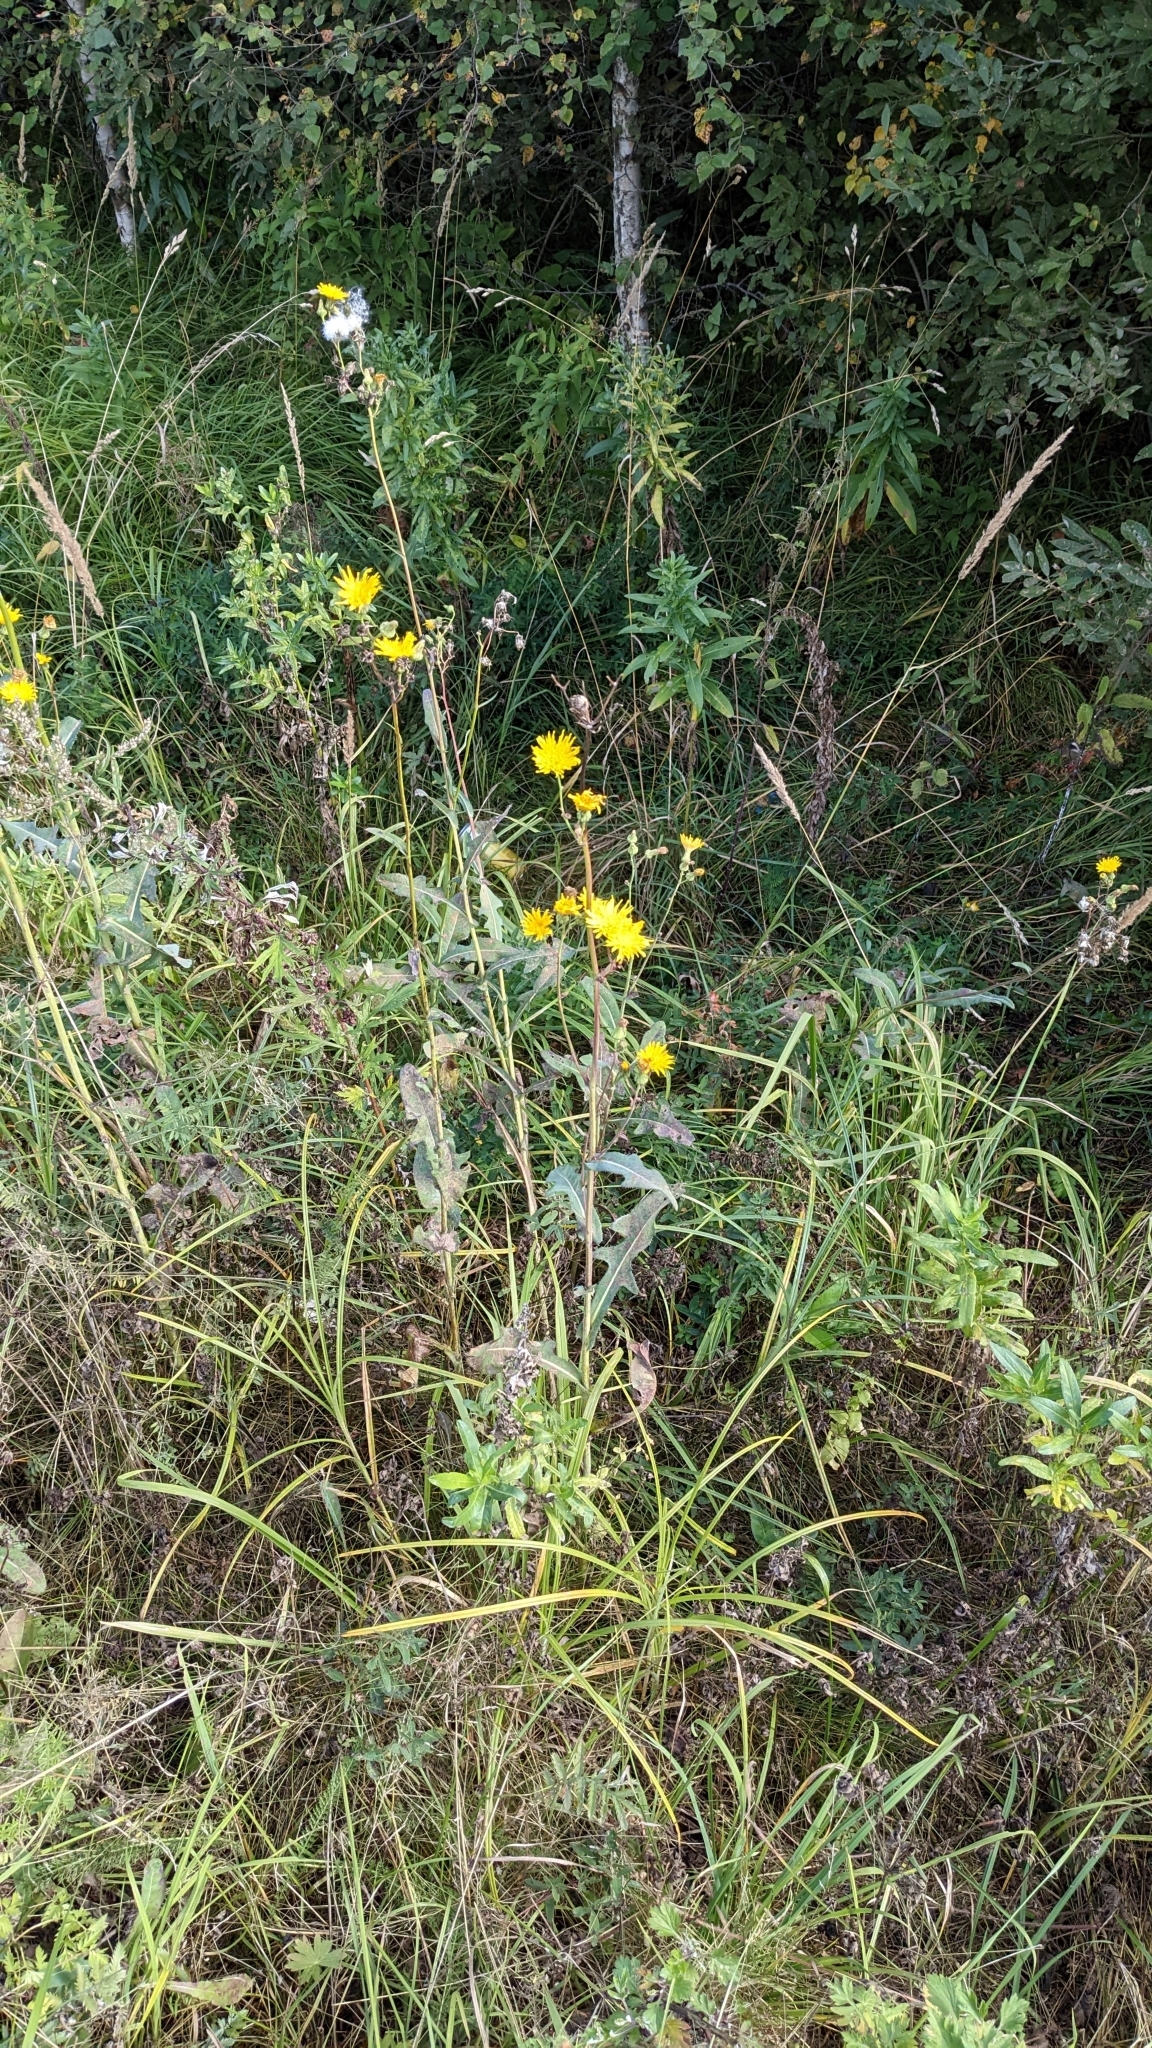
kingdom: Plantae
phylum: Tracheophyta
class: Magnoliopsida
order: Asterales
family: Asteraceae
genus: Sonchus
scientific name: Sonchus arvensis
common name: Perennial sow-thistle
